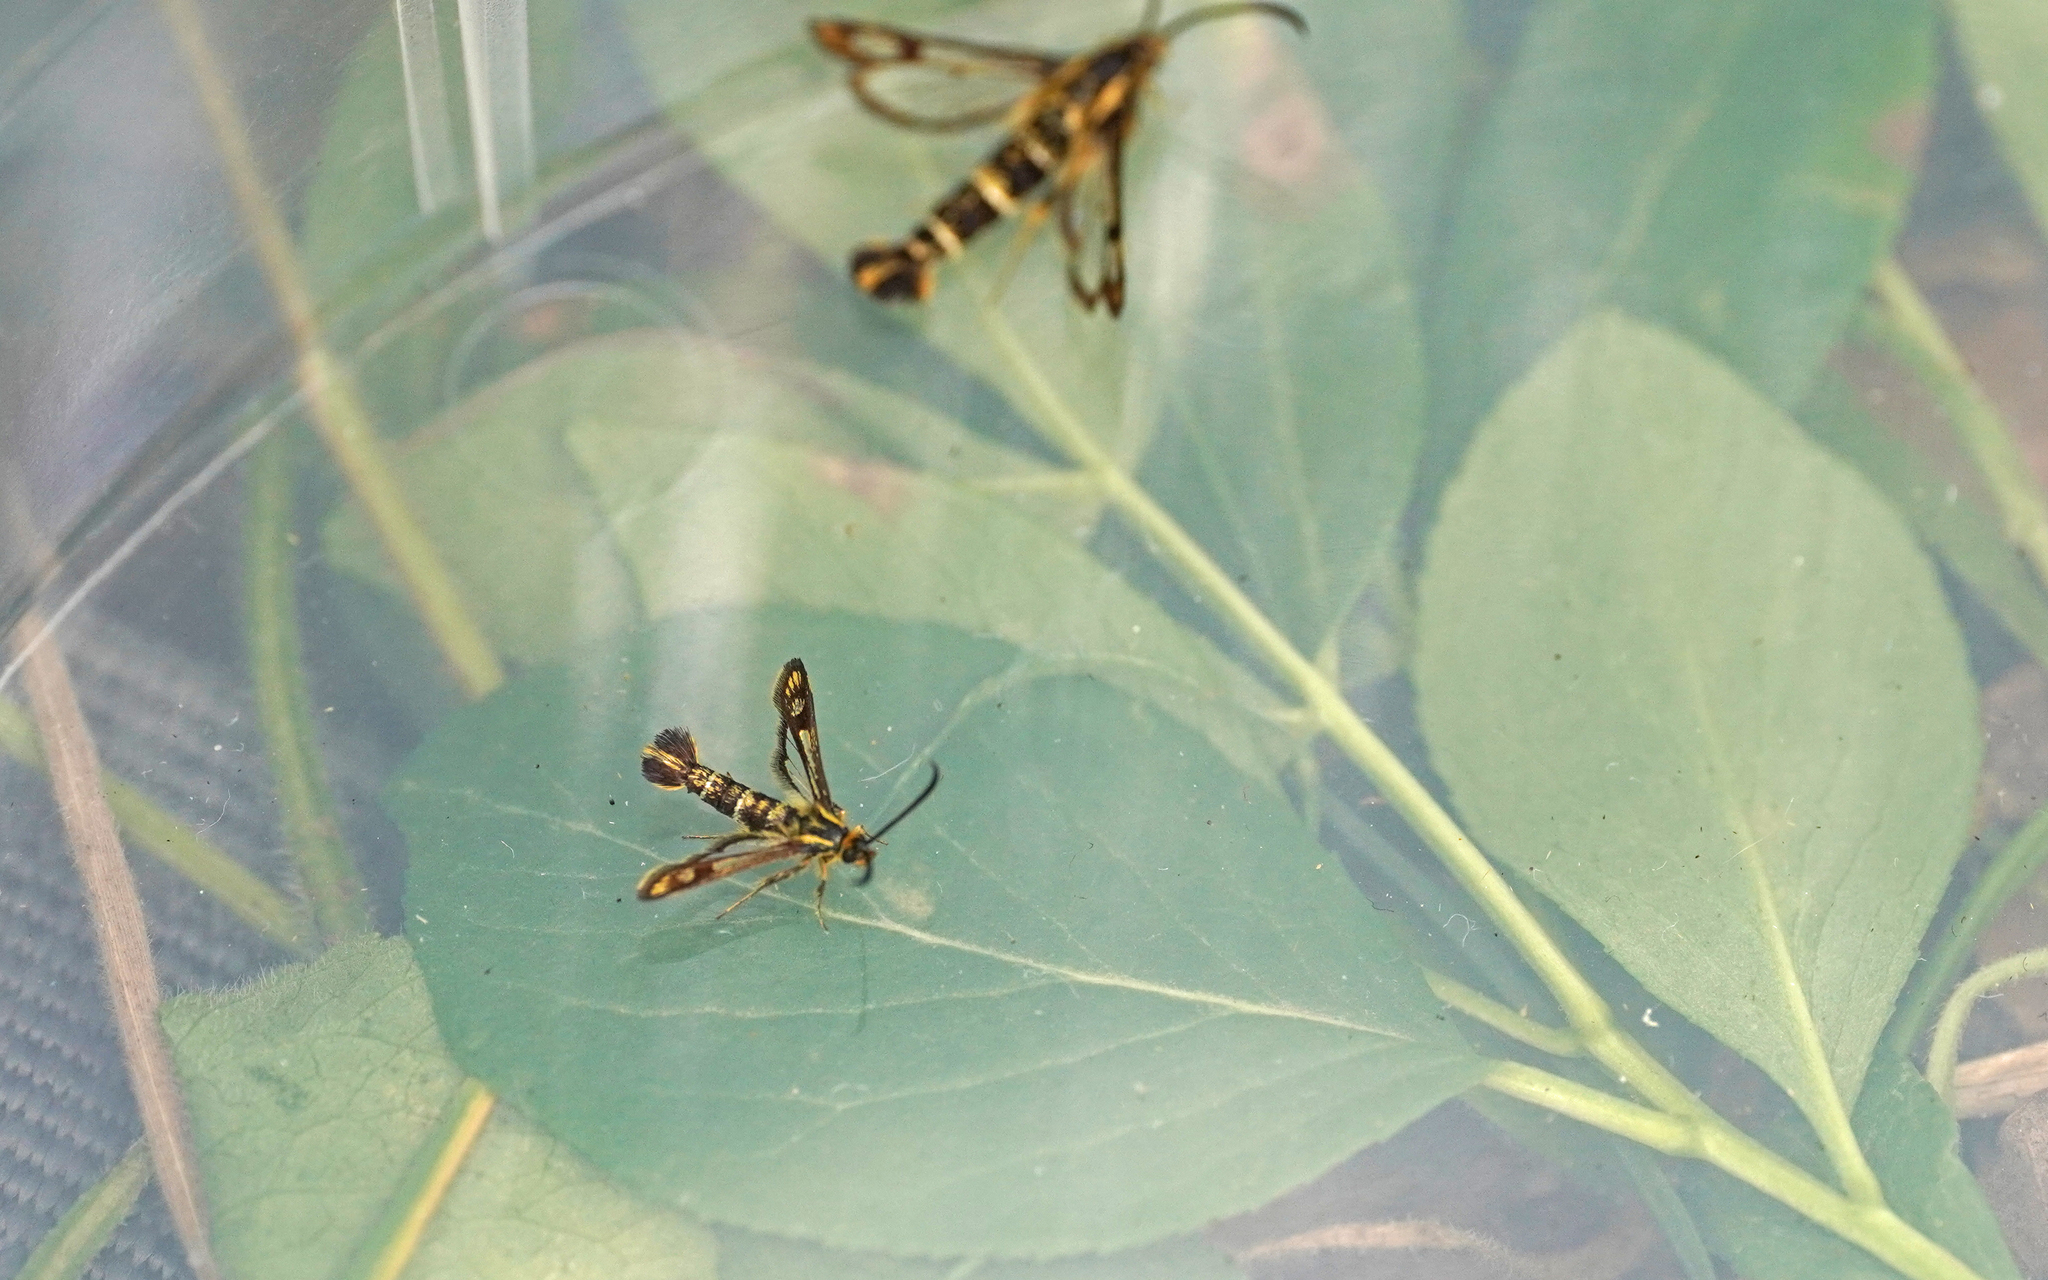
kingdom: Animalia
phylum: Arthropoda
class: Insecta
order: Lepidoptera
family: Sesiidae
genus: Chamaesphecia
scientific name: Chamaesphecia empiformis
